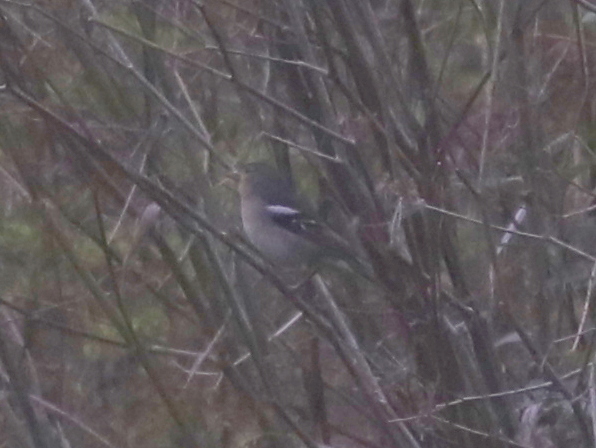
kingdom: Animalia
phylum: Chordata
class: Aves
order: Passeriformes
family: Fringillidae
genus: Fringilla
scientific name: Fringilla canariensis
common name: Canary islands chaffinch
